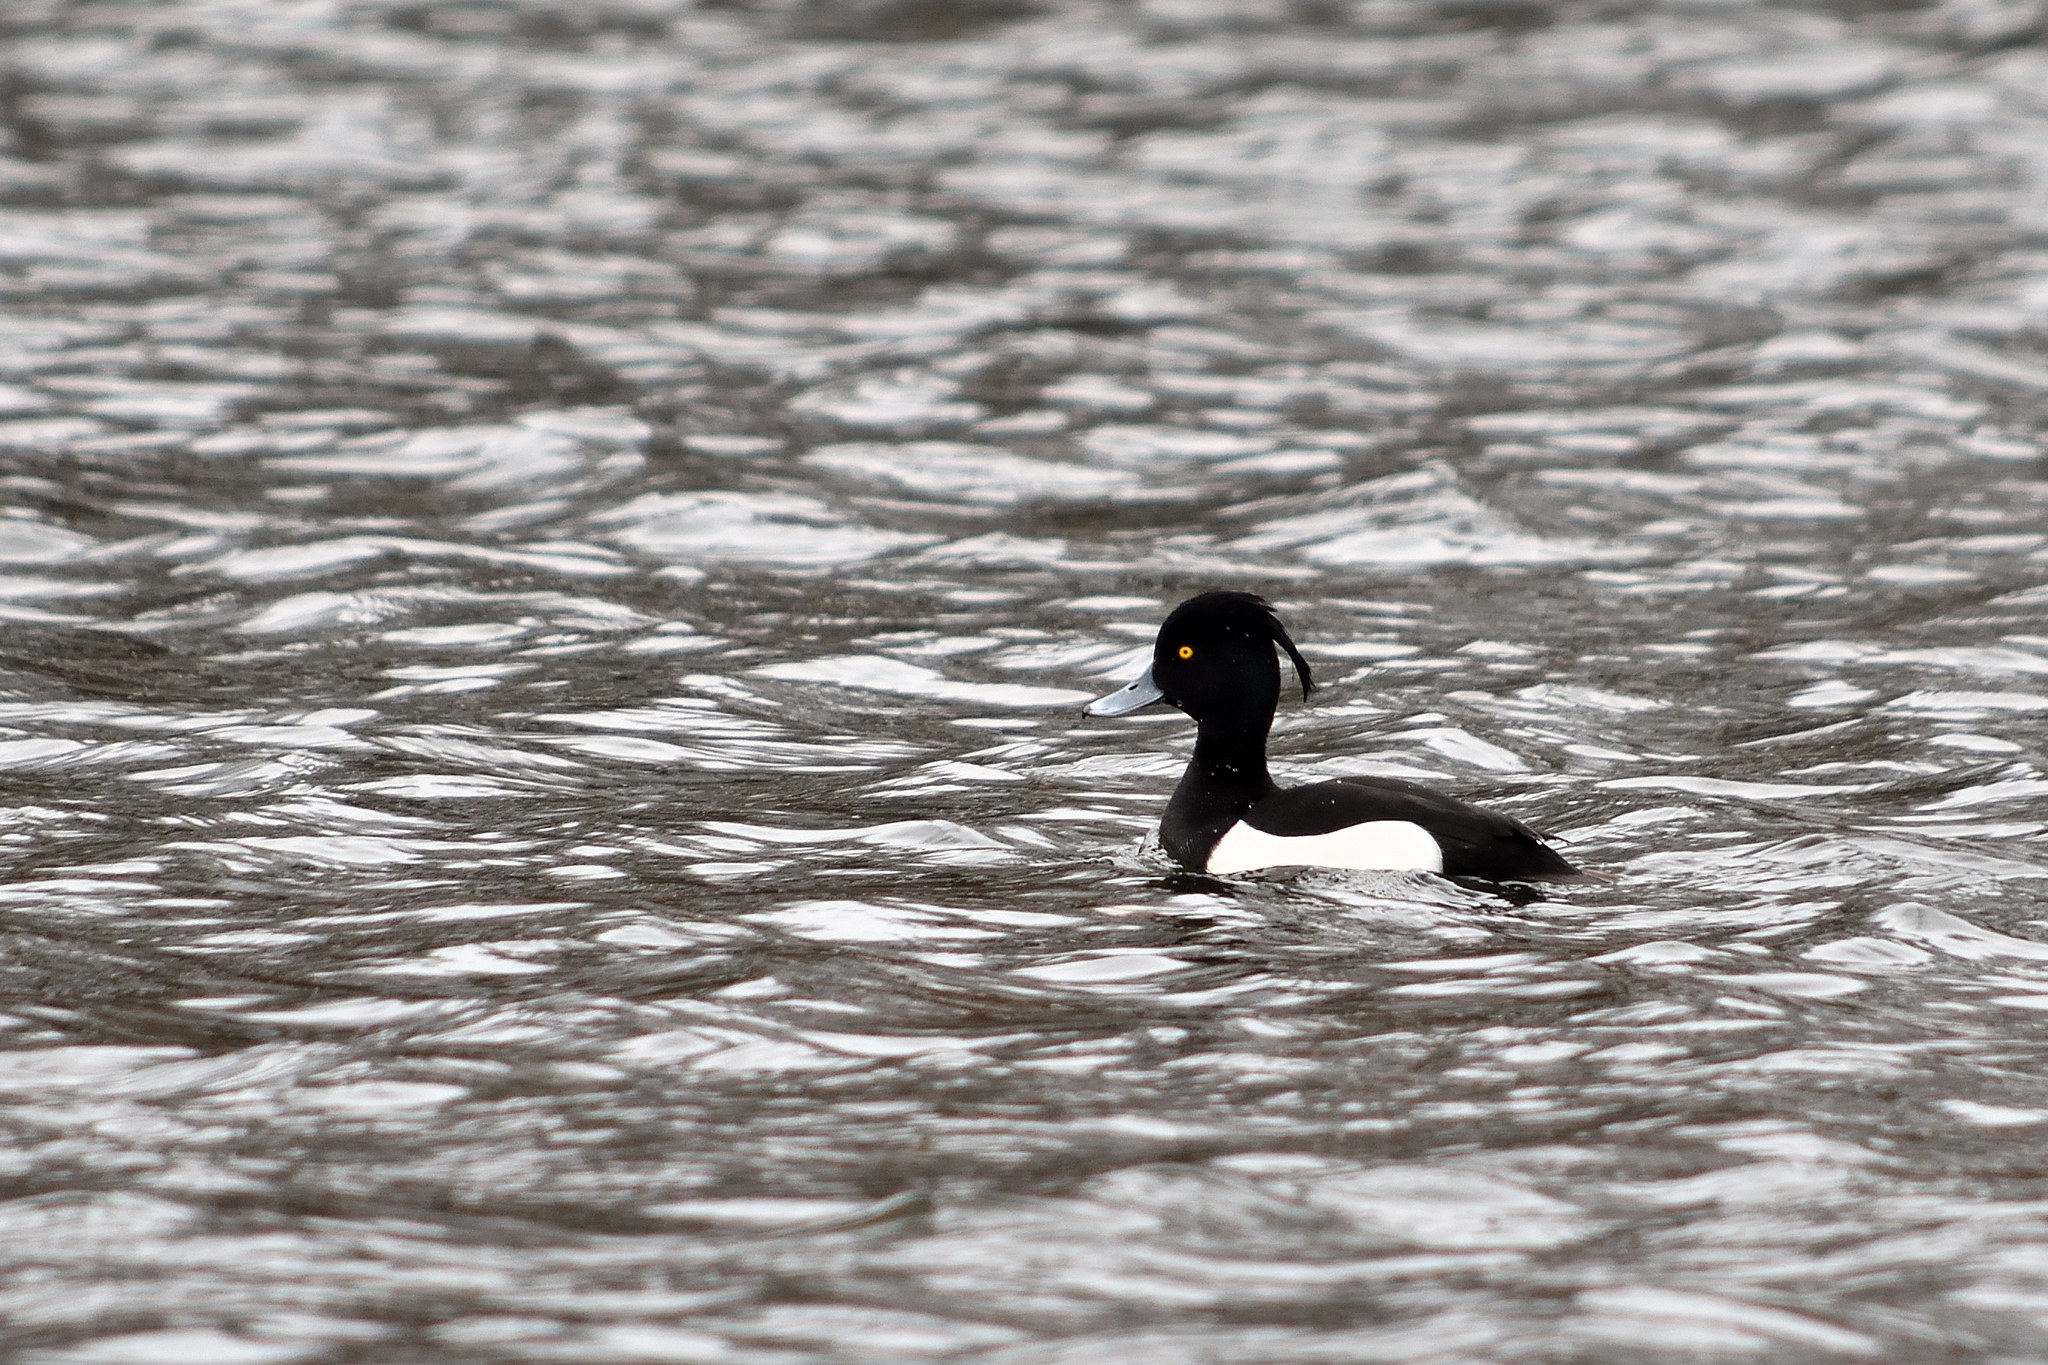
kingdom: Animalia
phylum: Chordata
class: Aves
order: Anseriformes
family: Anatidae
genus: Aythya
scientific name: Aythya fuligula
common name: Tufted duck
